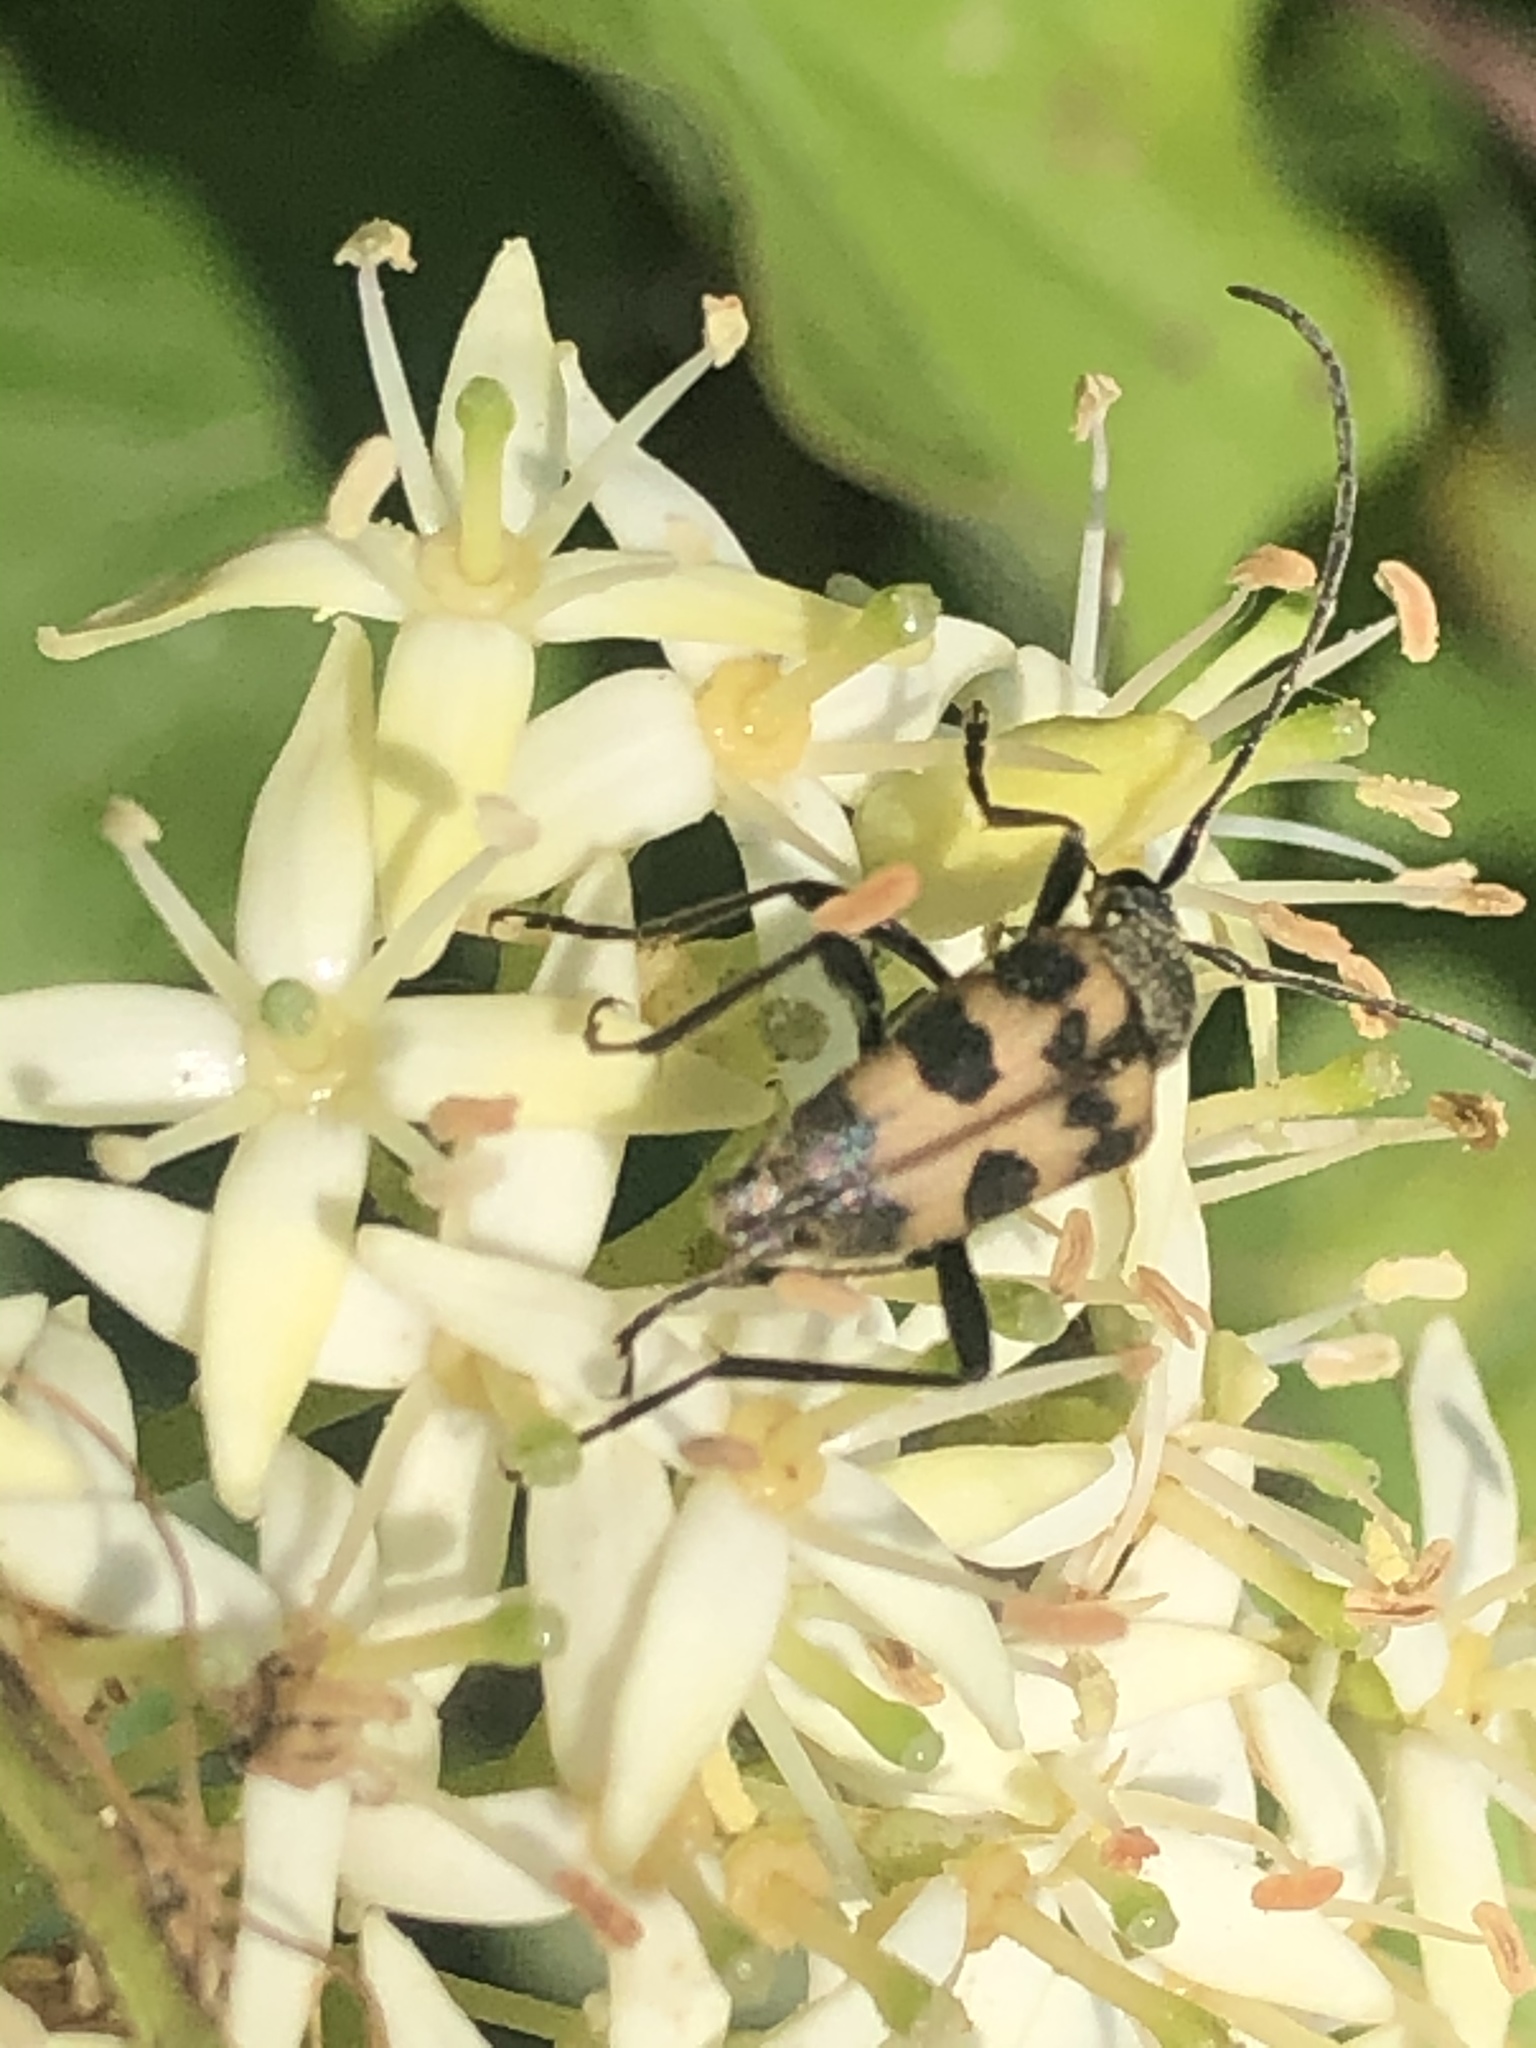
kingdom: Animalia
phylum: Arthropoda
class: Insecta
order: Coleoptera
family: Cerambycidae
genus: Pachytodes
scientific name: Pachytodes cerambyciformis
